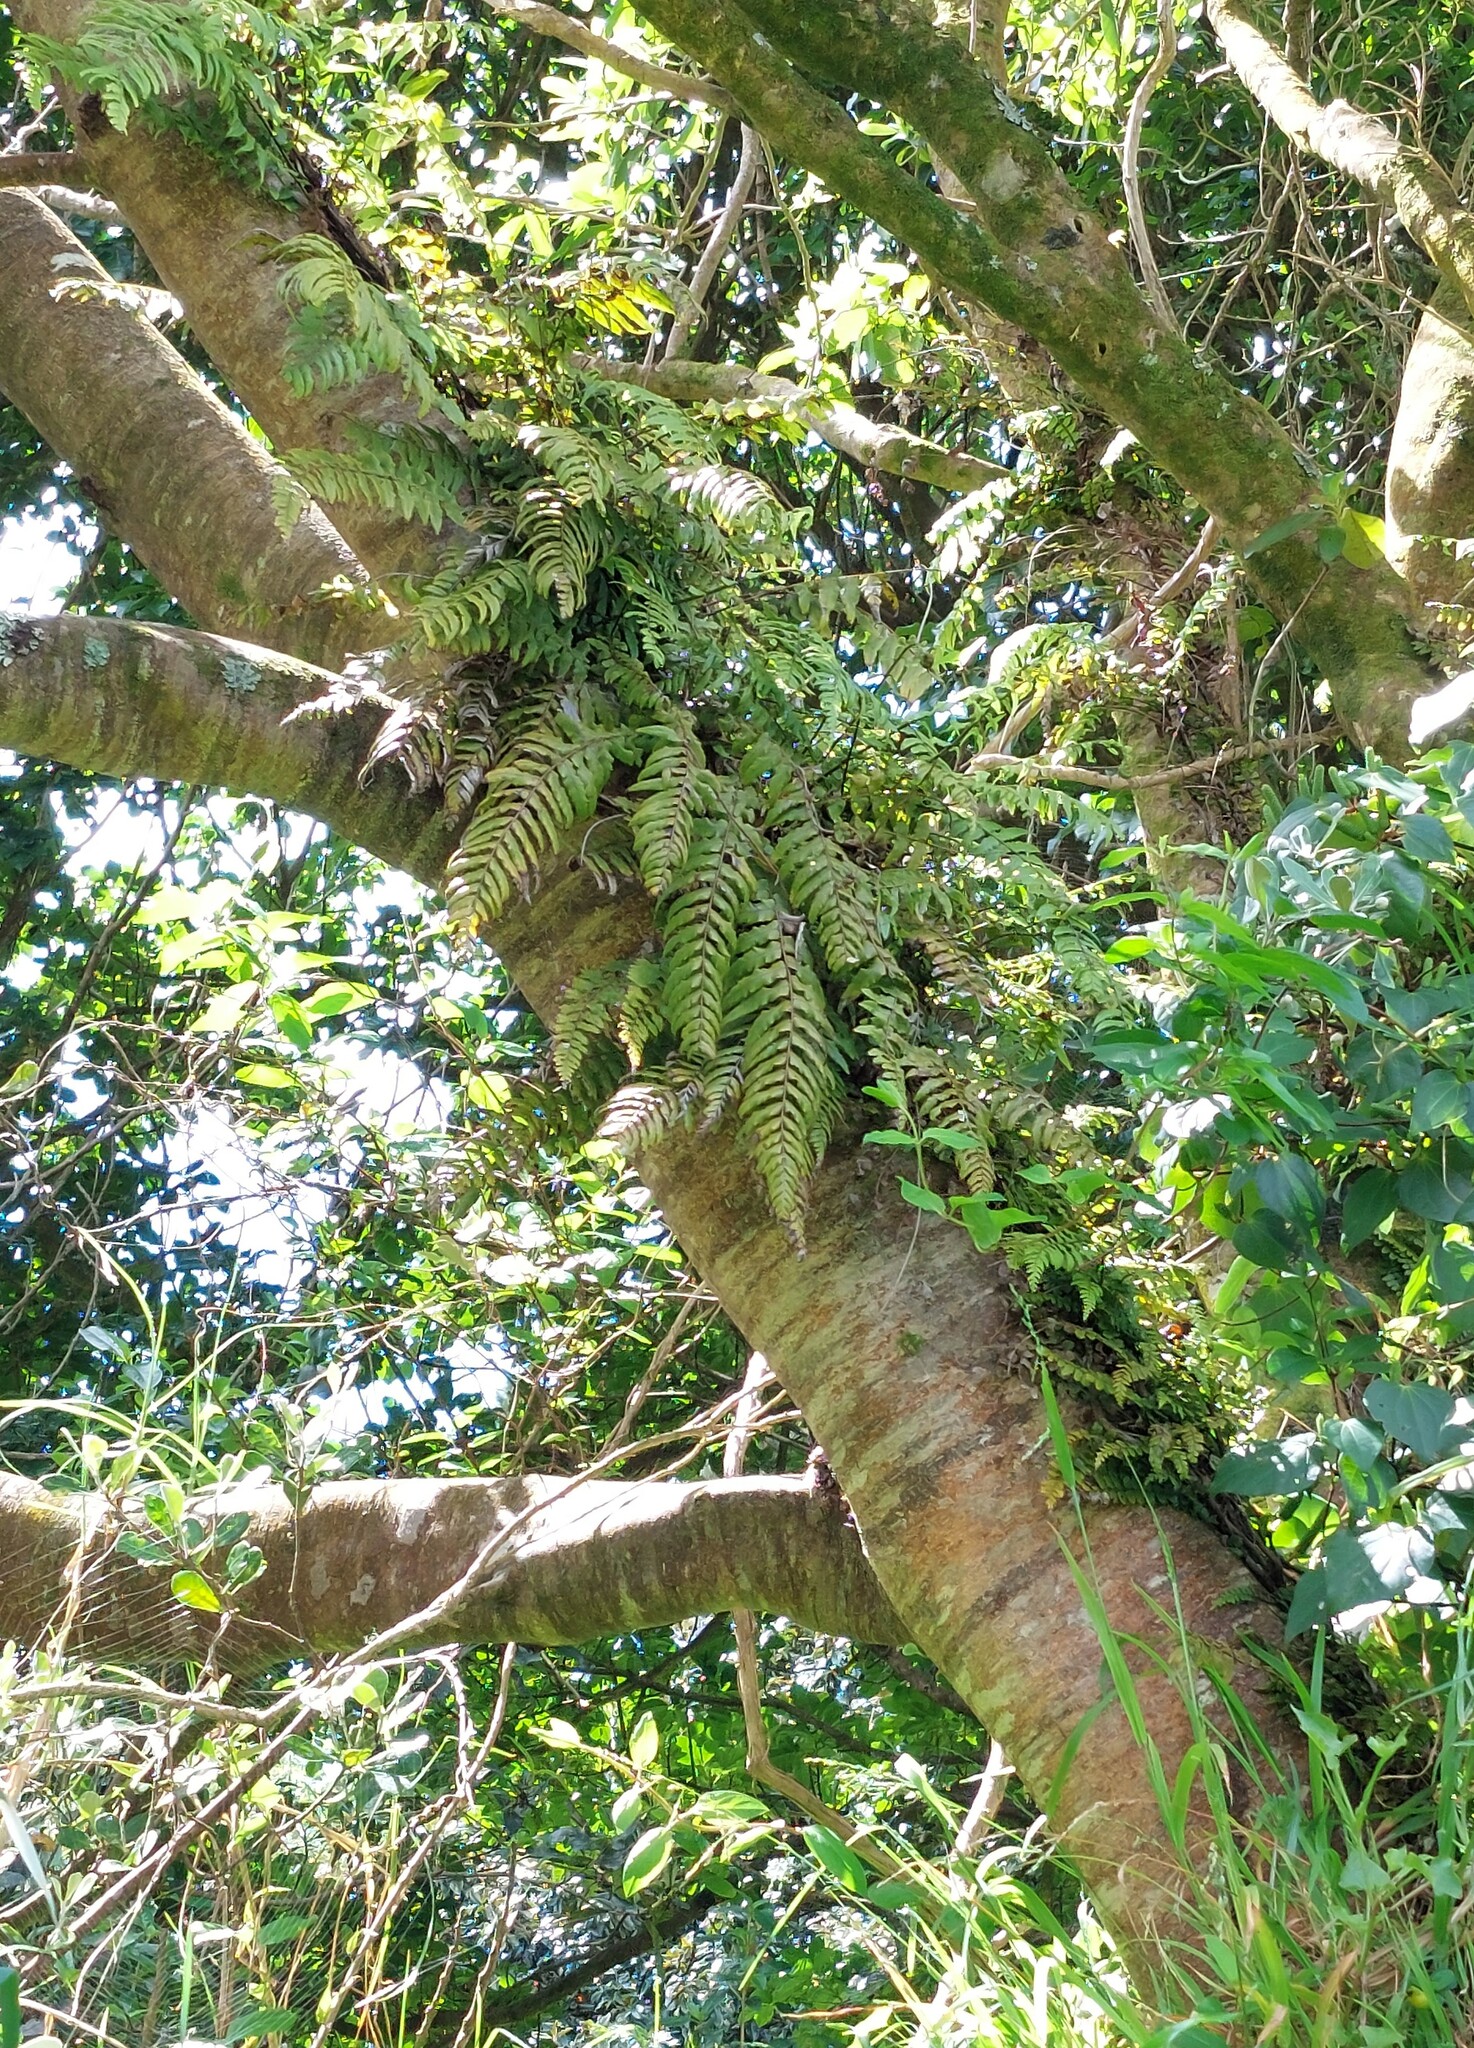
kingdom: Plantae
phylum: Tracheophyta
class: Polypodiopsida
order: Polypodiales
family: Blechnaceae
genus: Icarus
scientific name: Icarus filiformis
